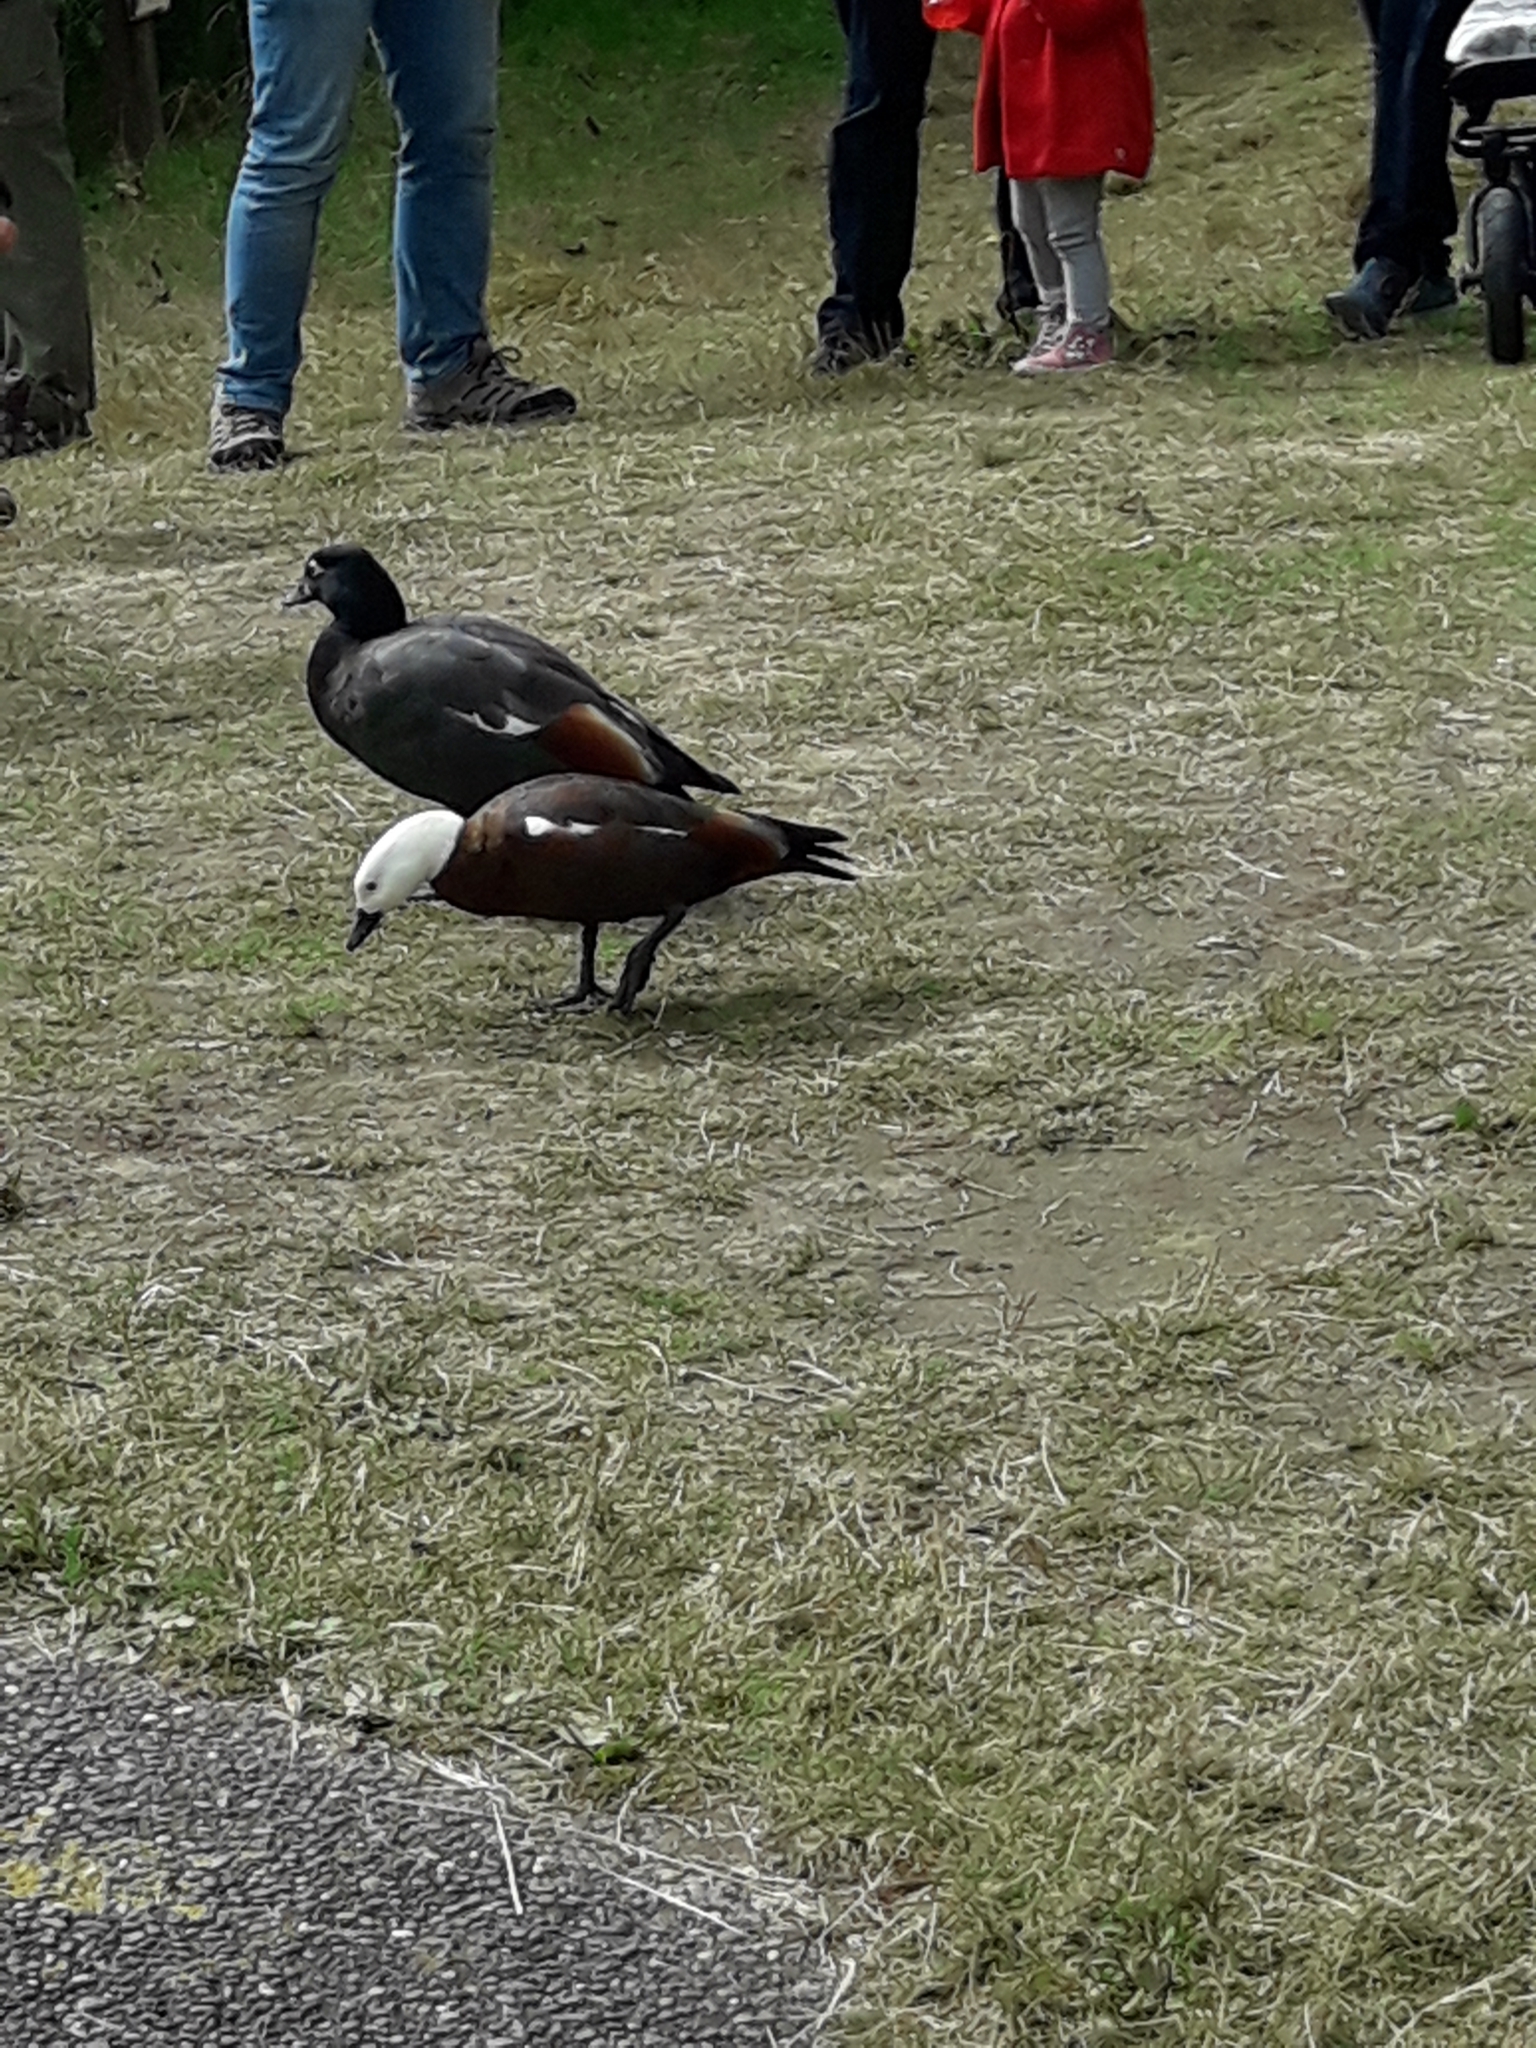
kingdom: Animalia
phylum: Chordata
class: Aves
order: Anseriformes
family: Anatidae
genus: Tadorna
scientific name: Tadorna variegata
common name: Paradise shelduck
